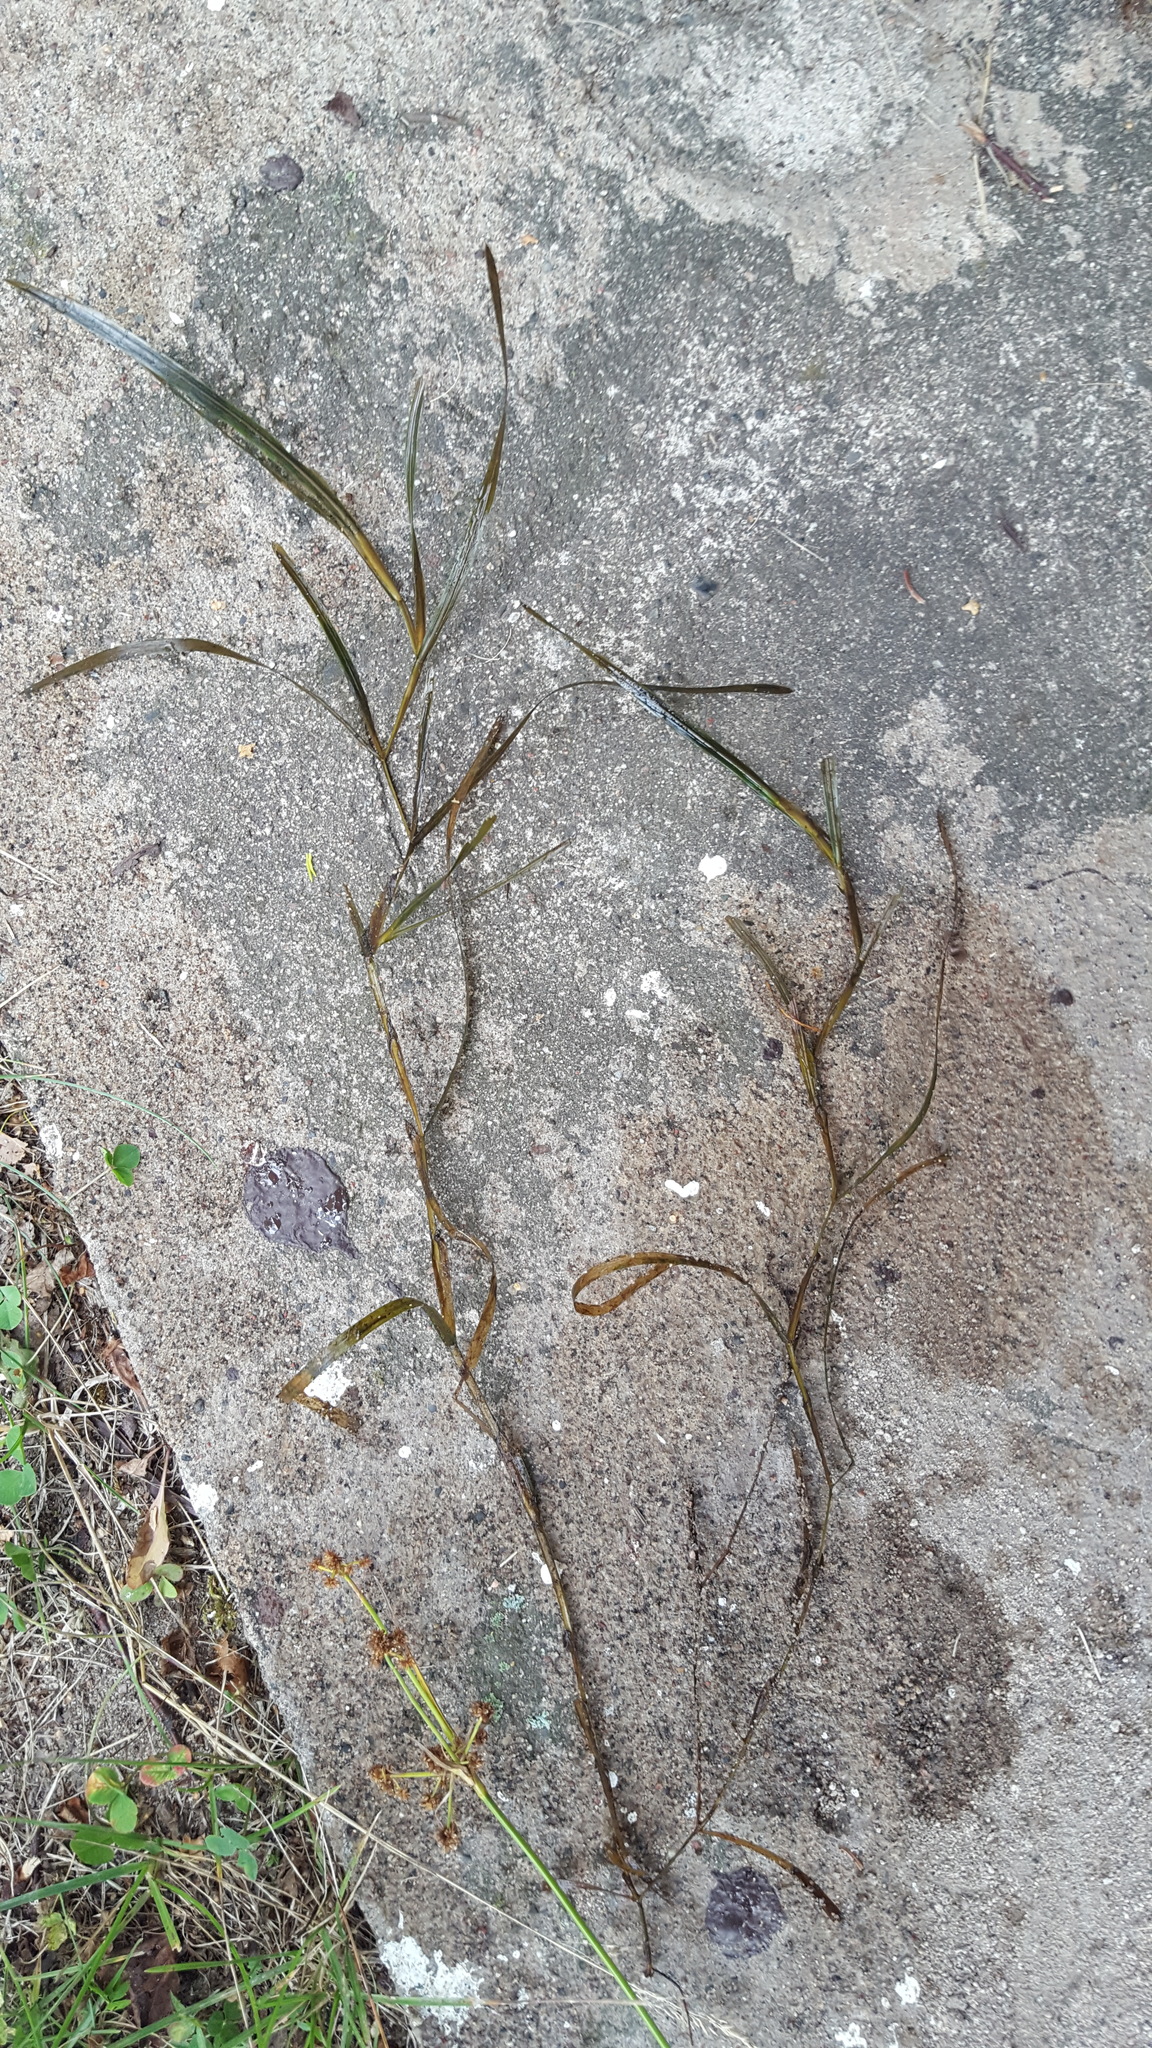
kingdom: Plantae
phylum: Tracheophyta
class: Liliopsida
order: Alismatales
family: Potamogetonaceae
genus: Potamogeton
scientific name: Potamogeton zosteriformis
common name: Eelgrass pondweed
